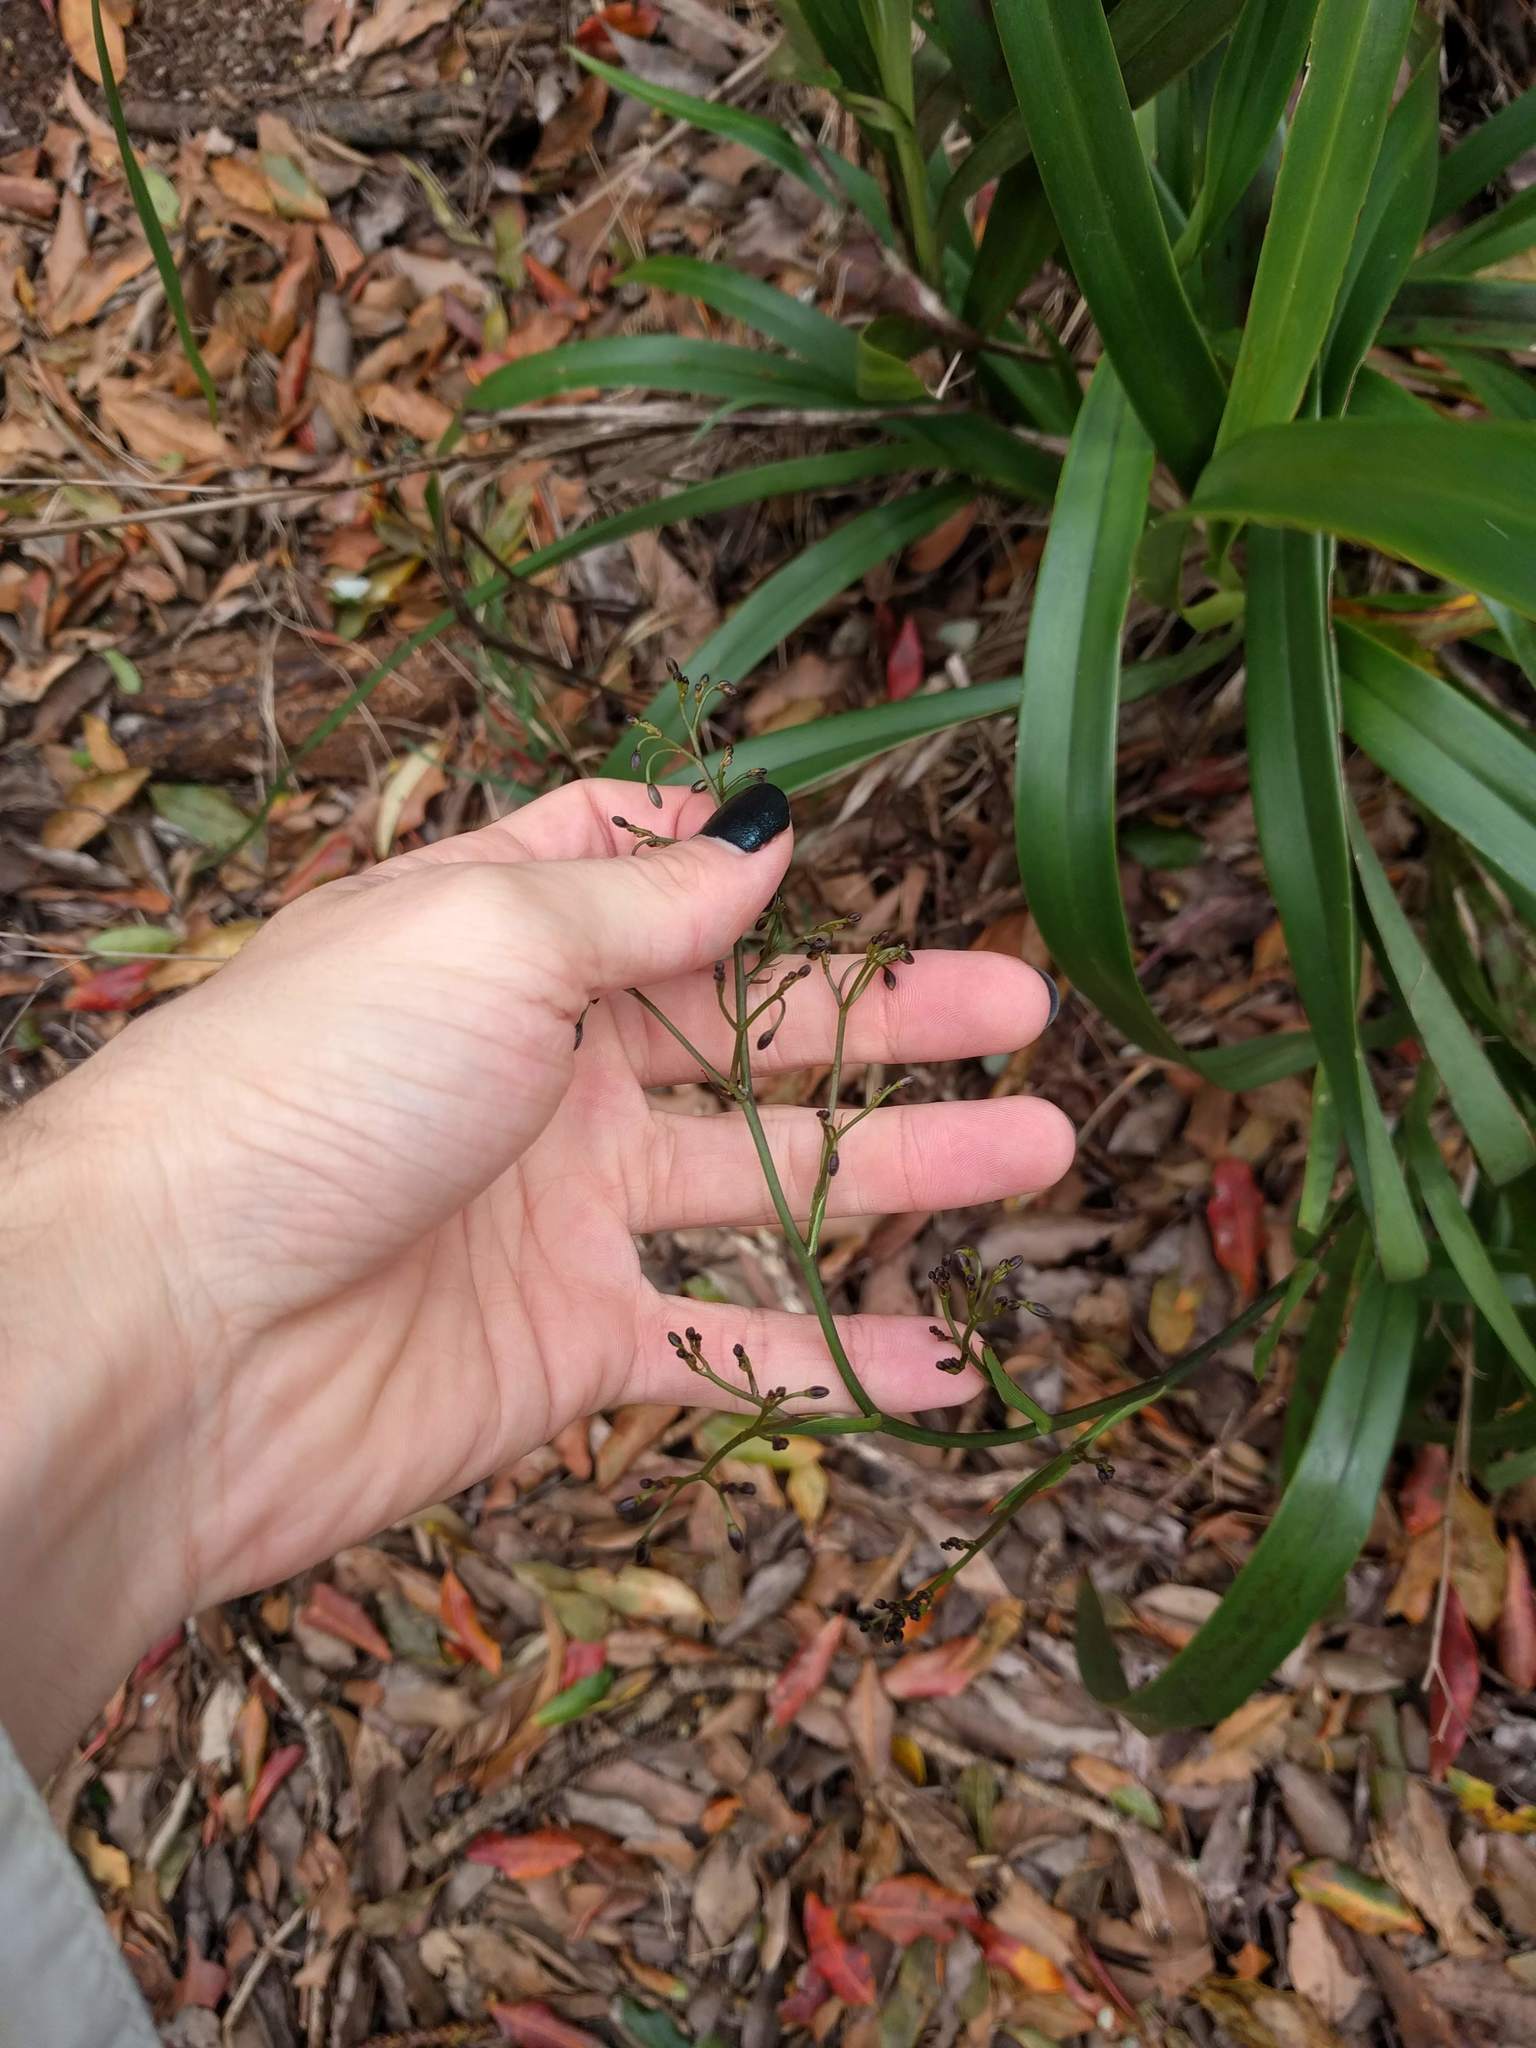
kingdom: Plantae
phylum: Tracheophyta
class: Liliopsida
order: Asparagales
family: Asphodelaceae
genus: Dianella
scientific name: Dianella sandwicensis
